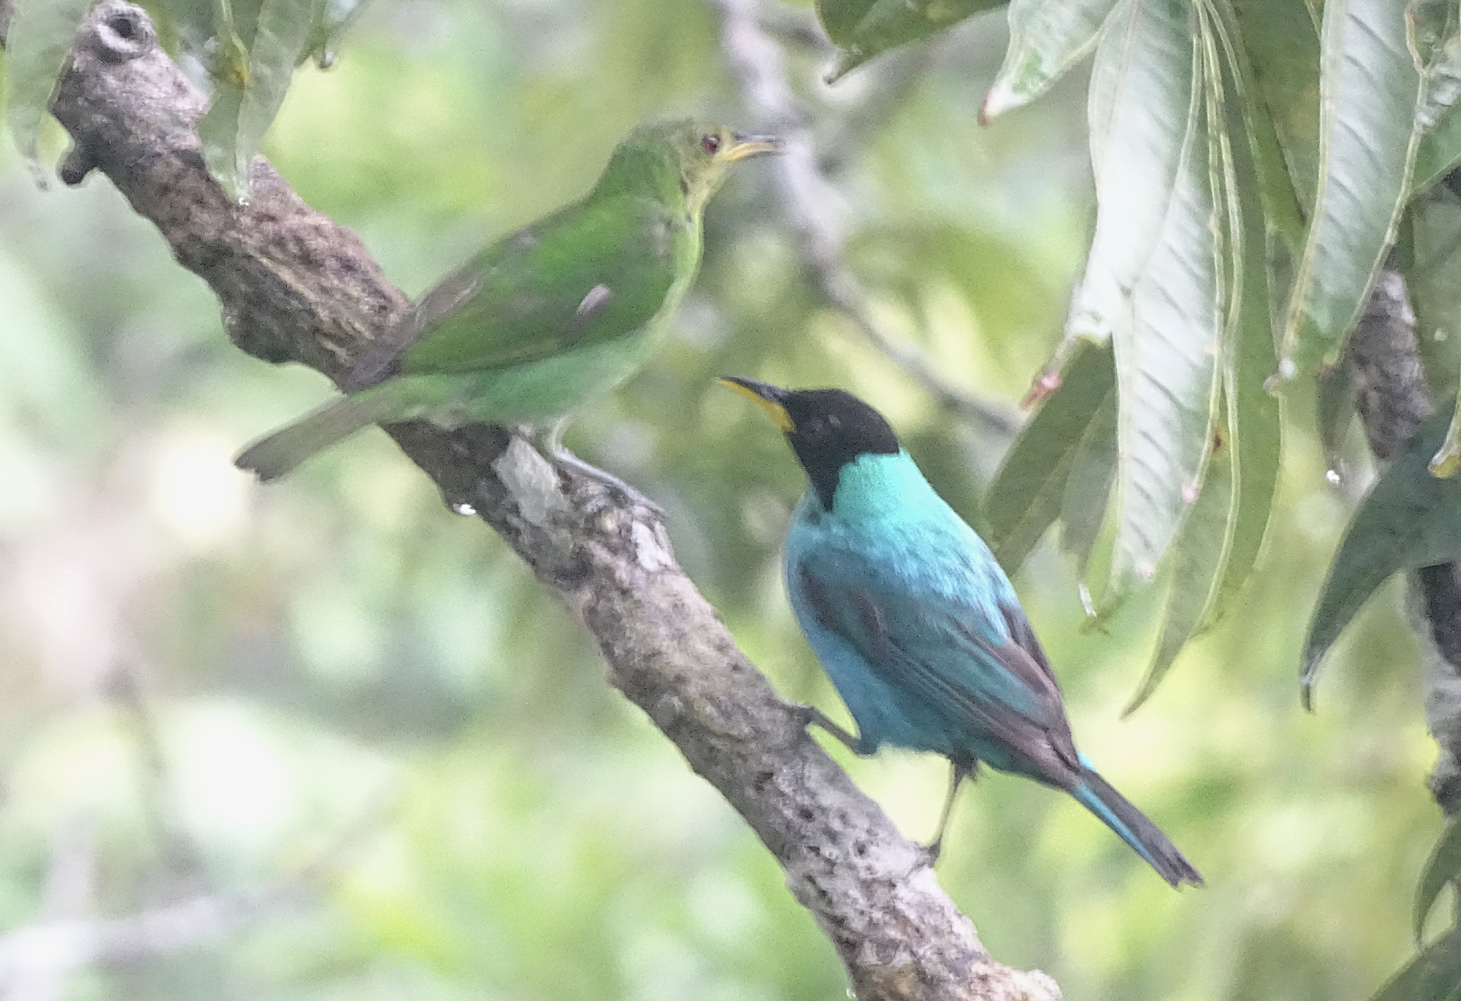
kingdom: Animalia
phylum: Chordata
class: Aves
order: Passeriformes
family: Thraupidae
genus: Chlorophanes
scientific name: Chlorophanes spiza
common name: Green honeycreeper
